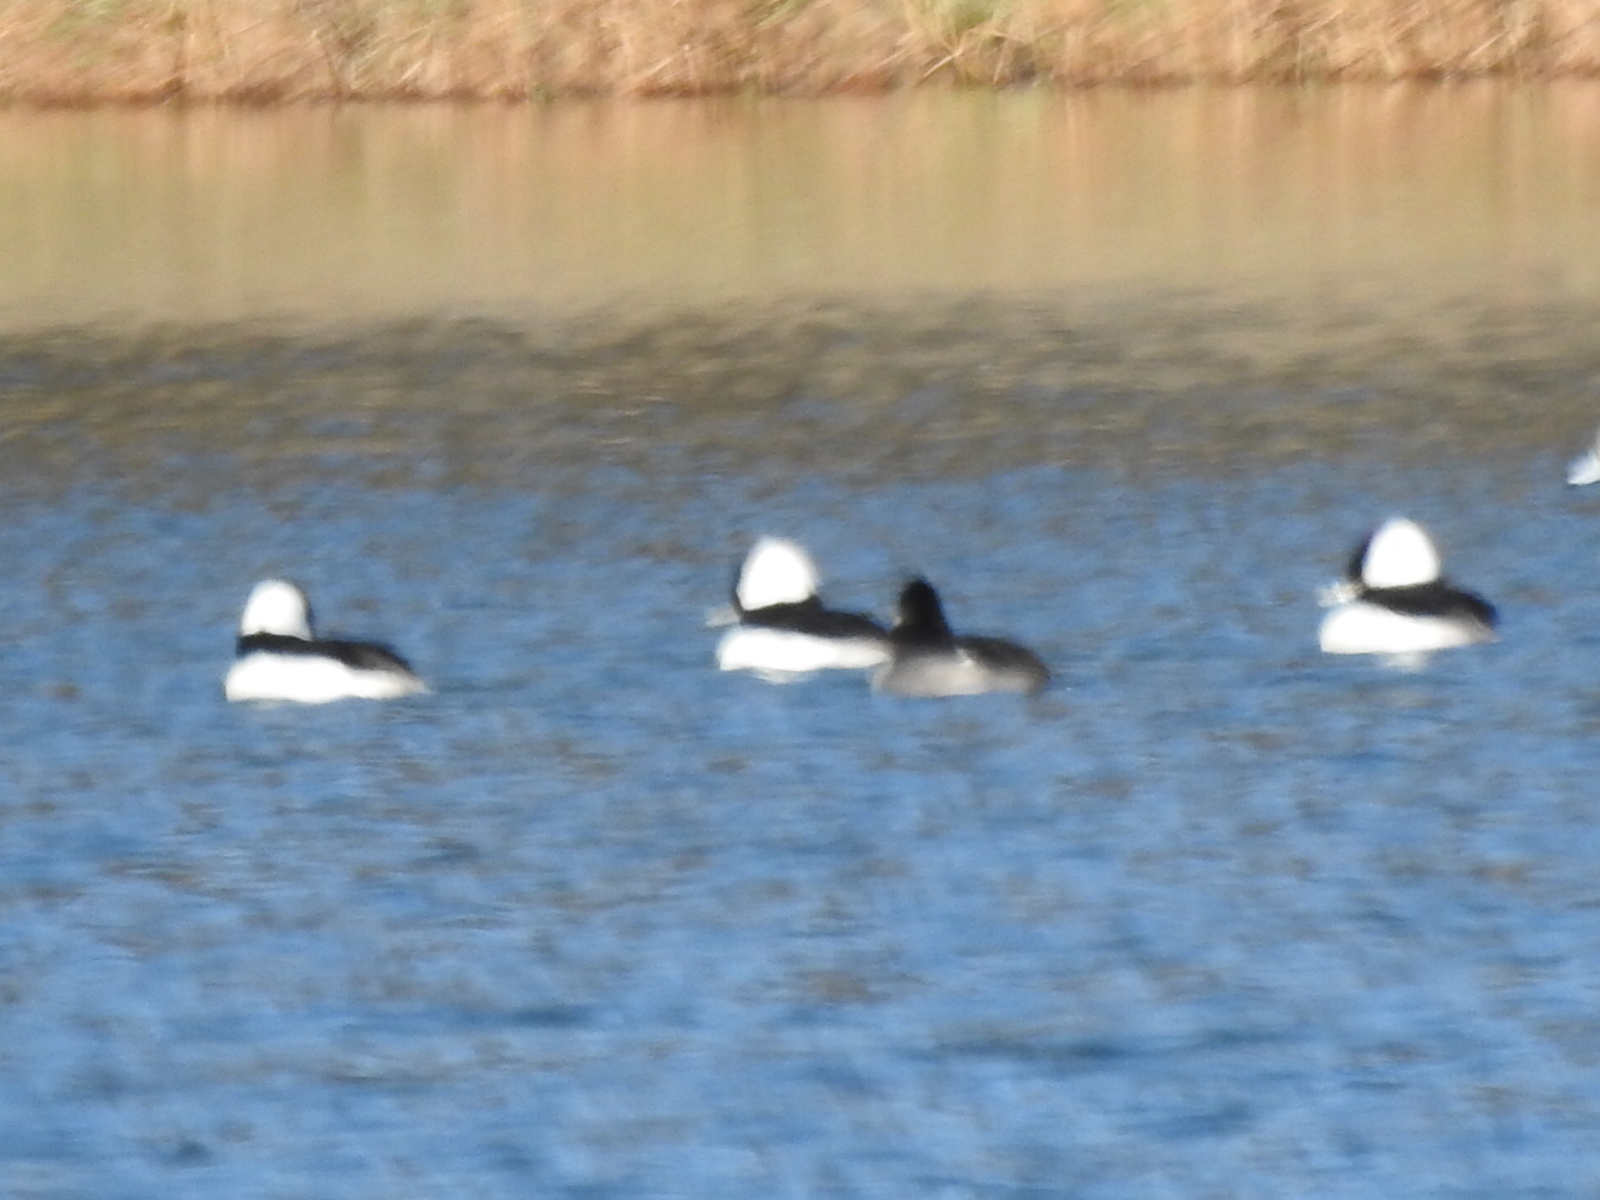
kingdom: Animalia
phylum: Chordata
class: Aves
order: Anseriformes
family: Anatidae
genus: Bucephala
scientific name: Bucephala albeola
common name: Bufflehead
